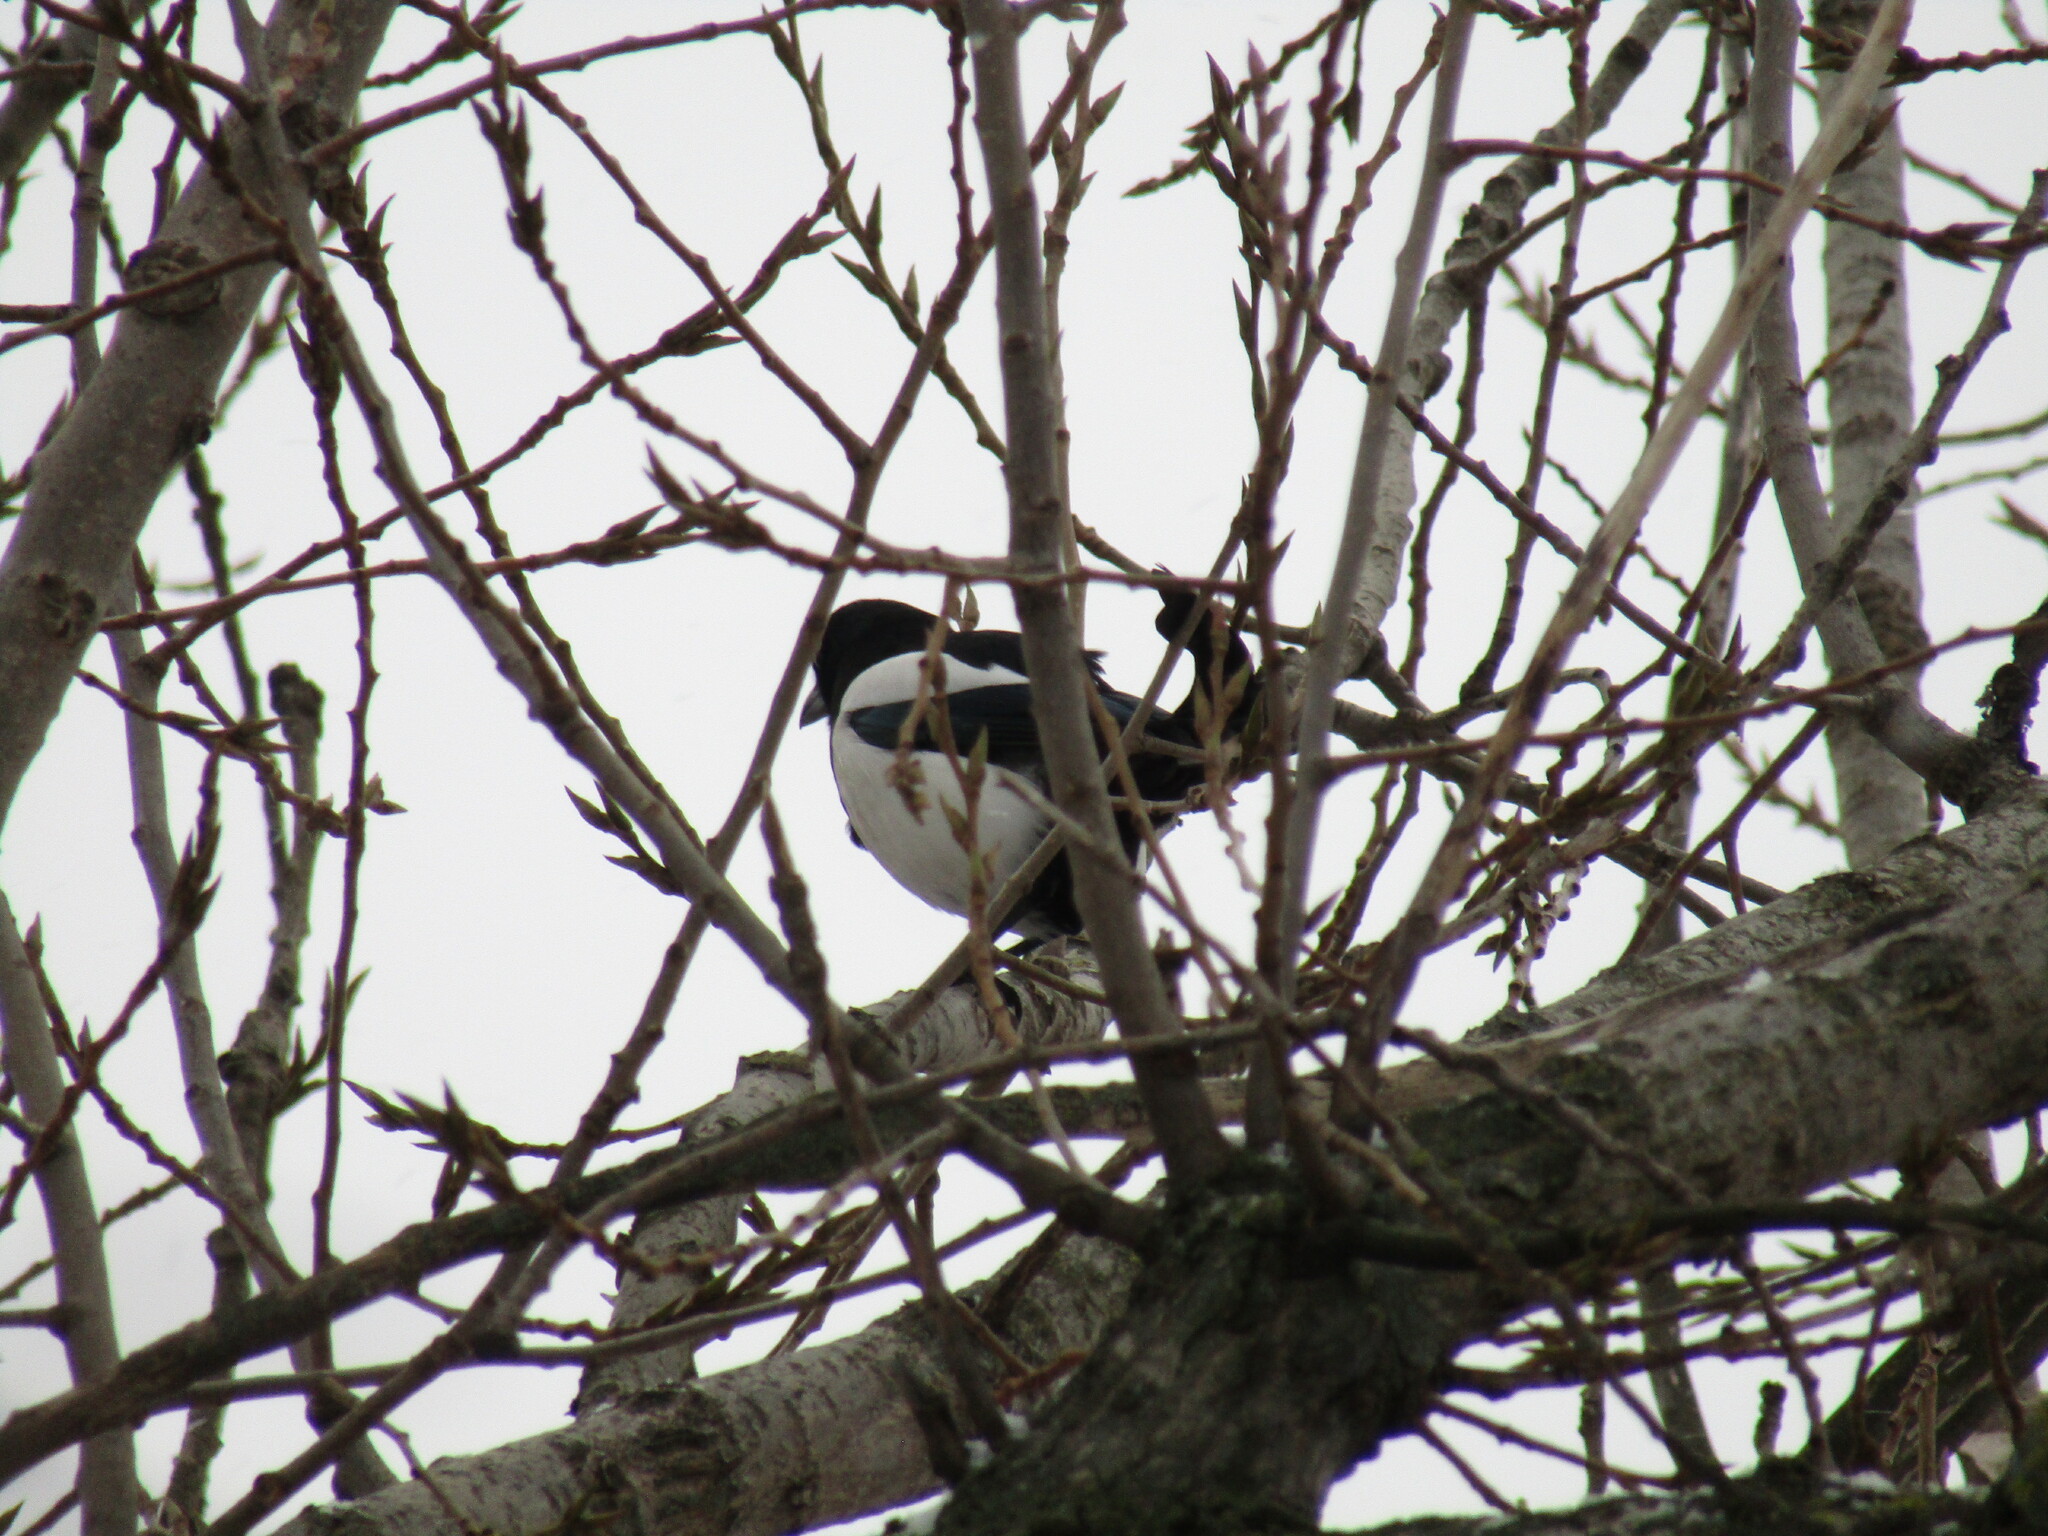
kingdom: Animalia
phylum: Chordata
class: Aves
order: Passeriformes
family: Corvidae
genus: Pica
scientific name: Pica pica
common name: Eurasian magpie
